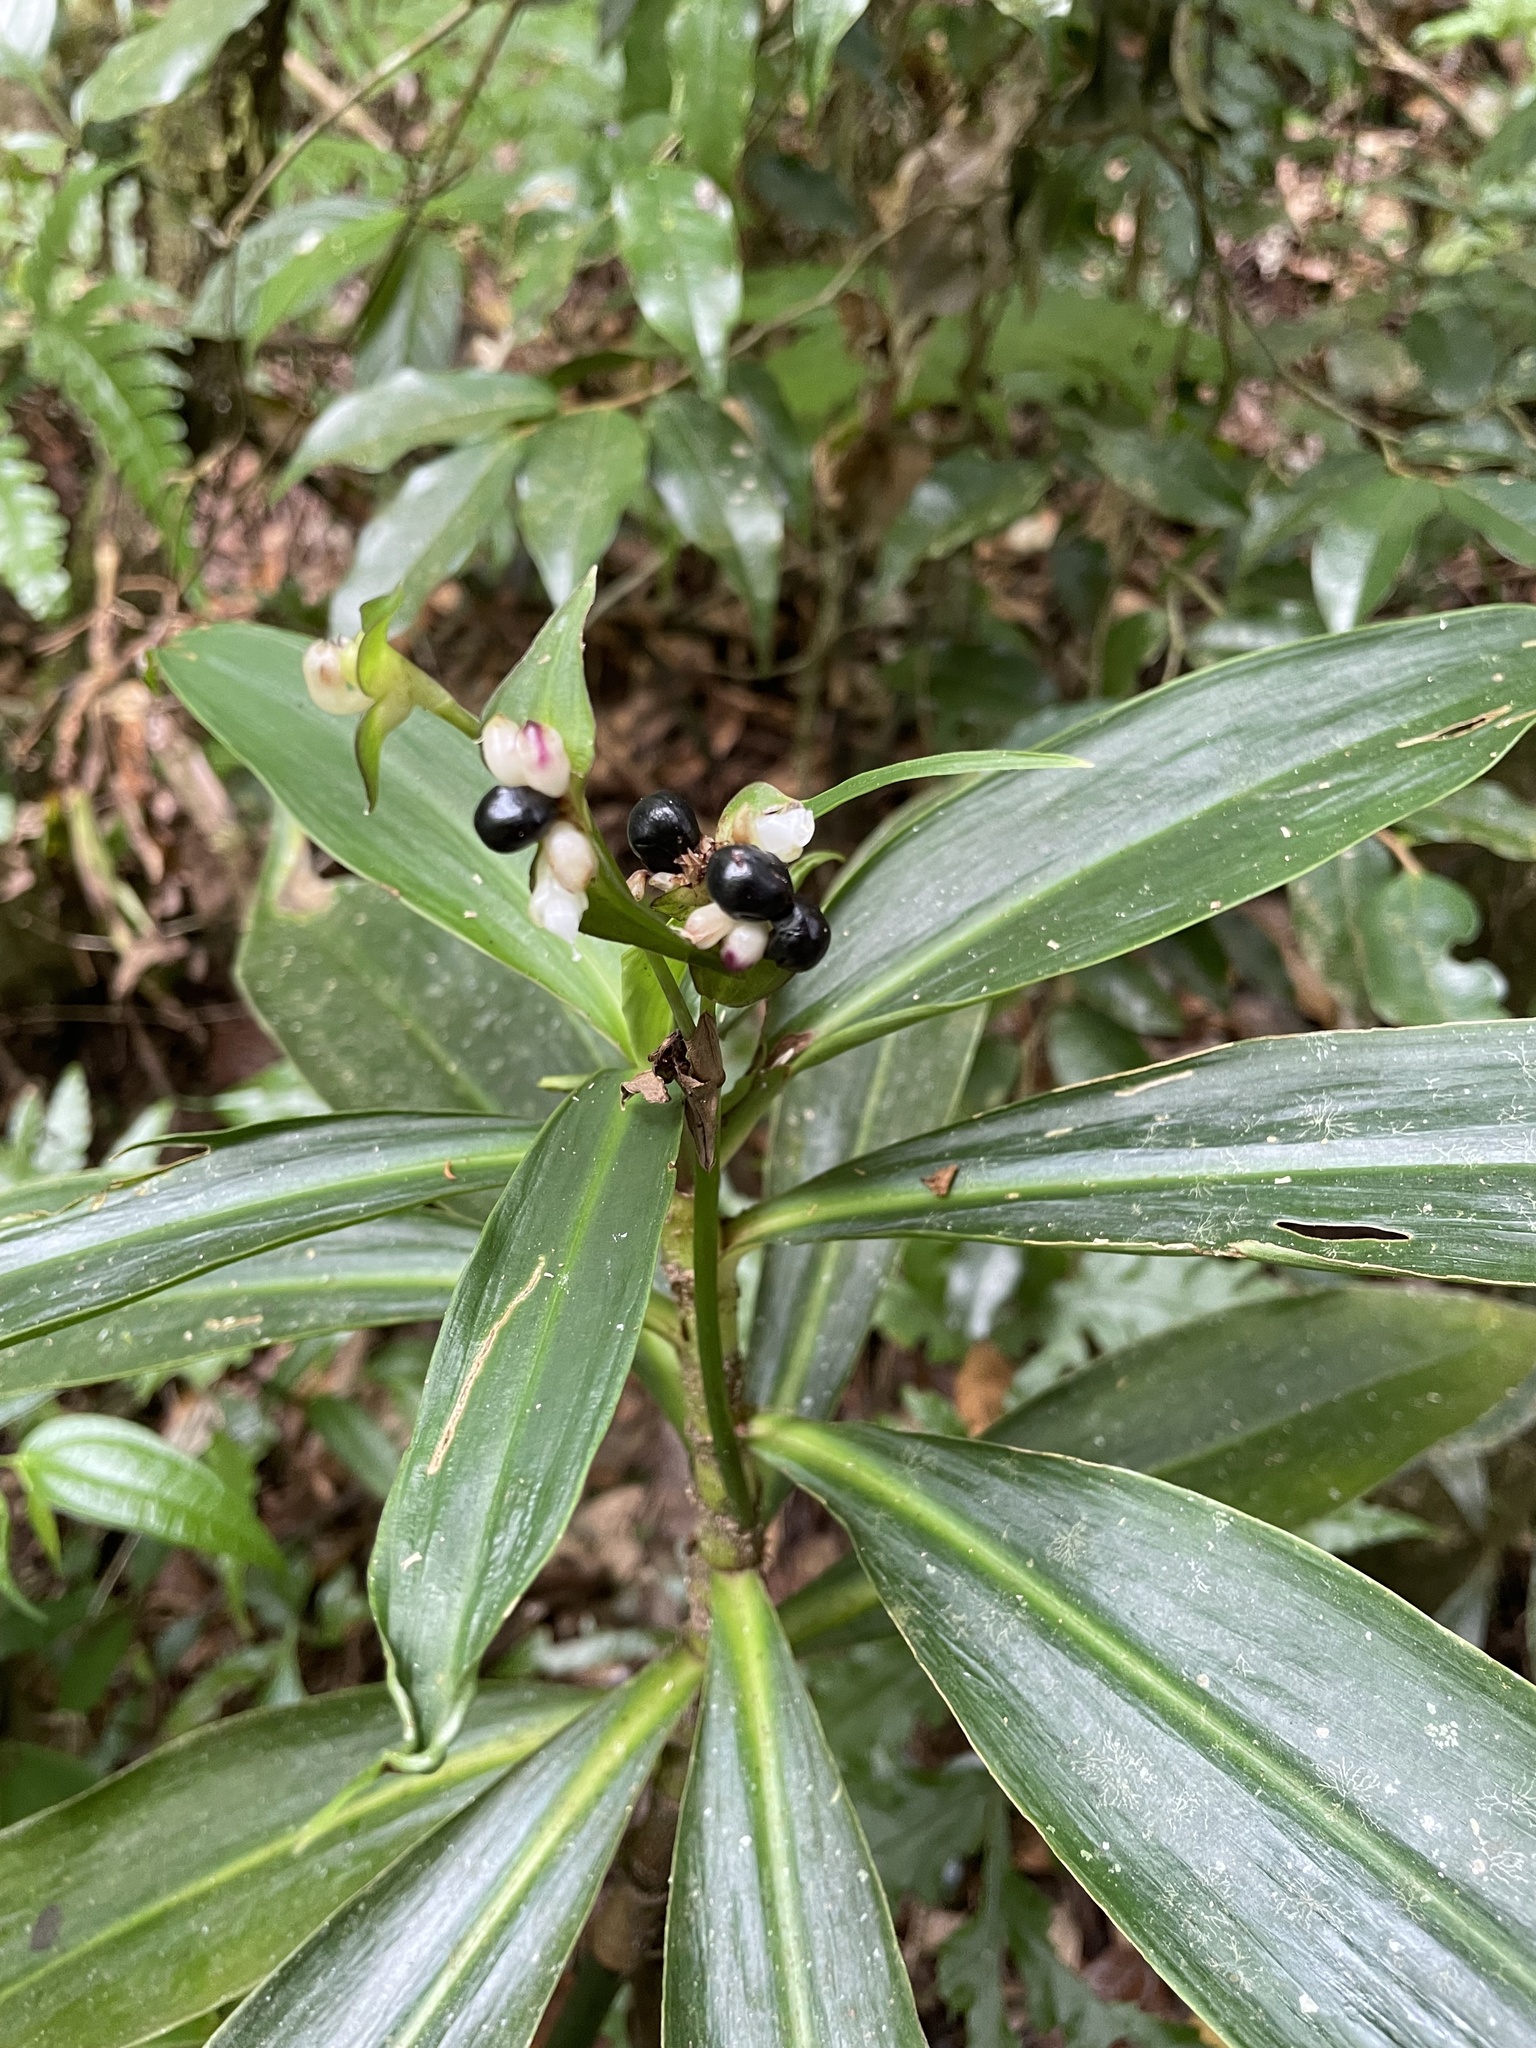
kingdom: Plantae
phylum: Tracheophyta
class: Liliopsida
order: Commelinales
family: Commelinaceae
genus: Tradescantia
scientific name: Tradescantia zanonia
